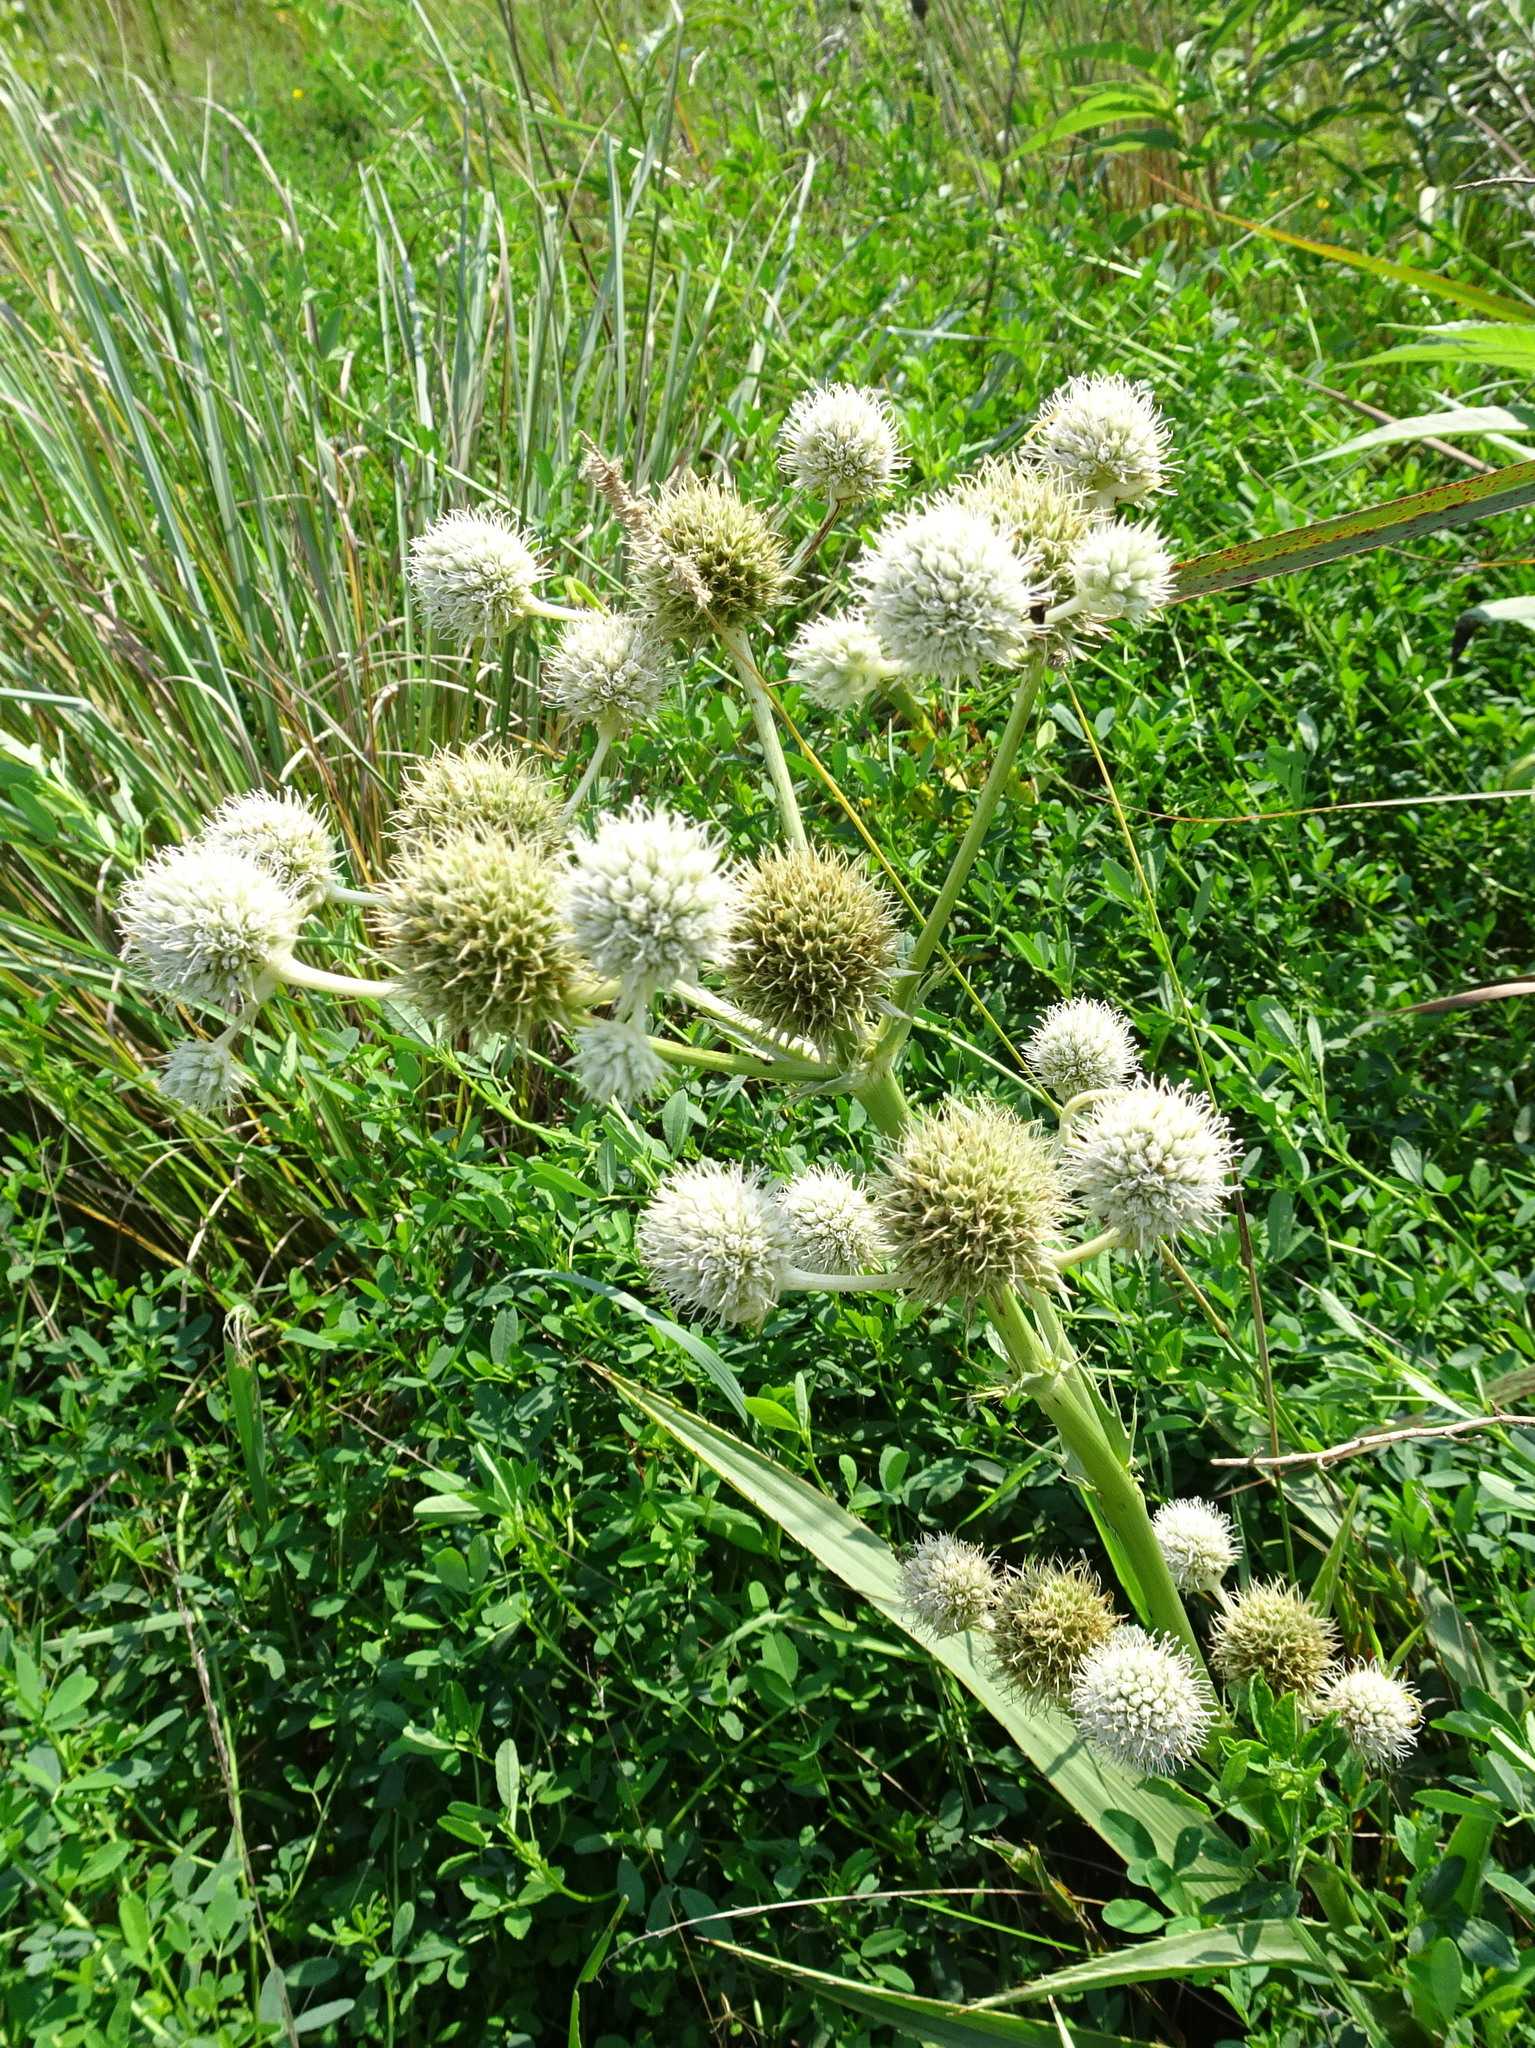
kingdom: Plantae
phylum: Tracheophyta
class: Magnoliopsida
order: Apiales
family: Apiaceae
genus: Eryngium
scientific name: Eryngium yuccifolium
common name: Button eryngo
